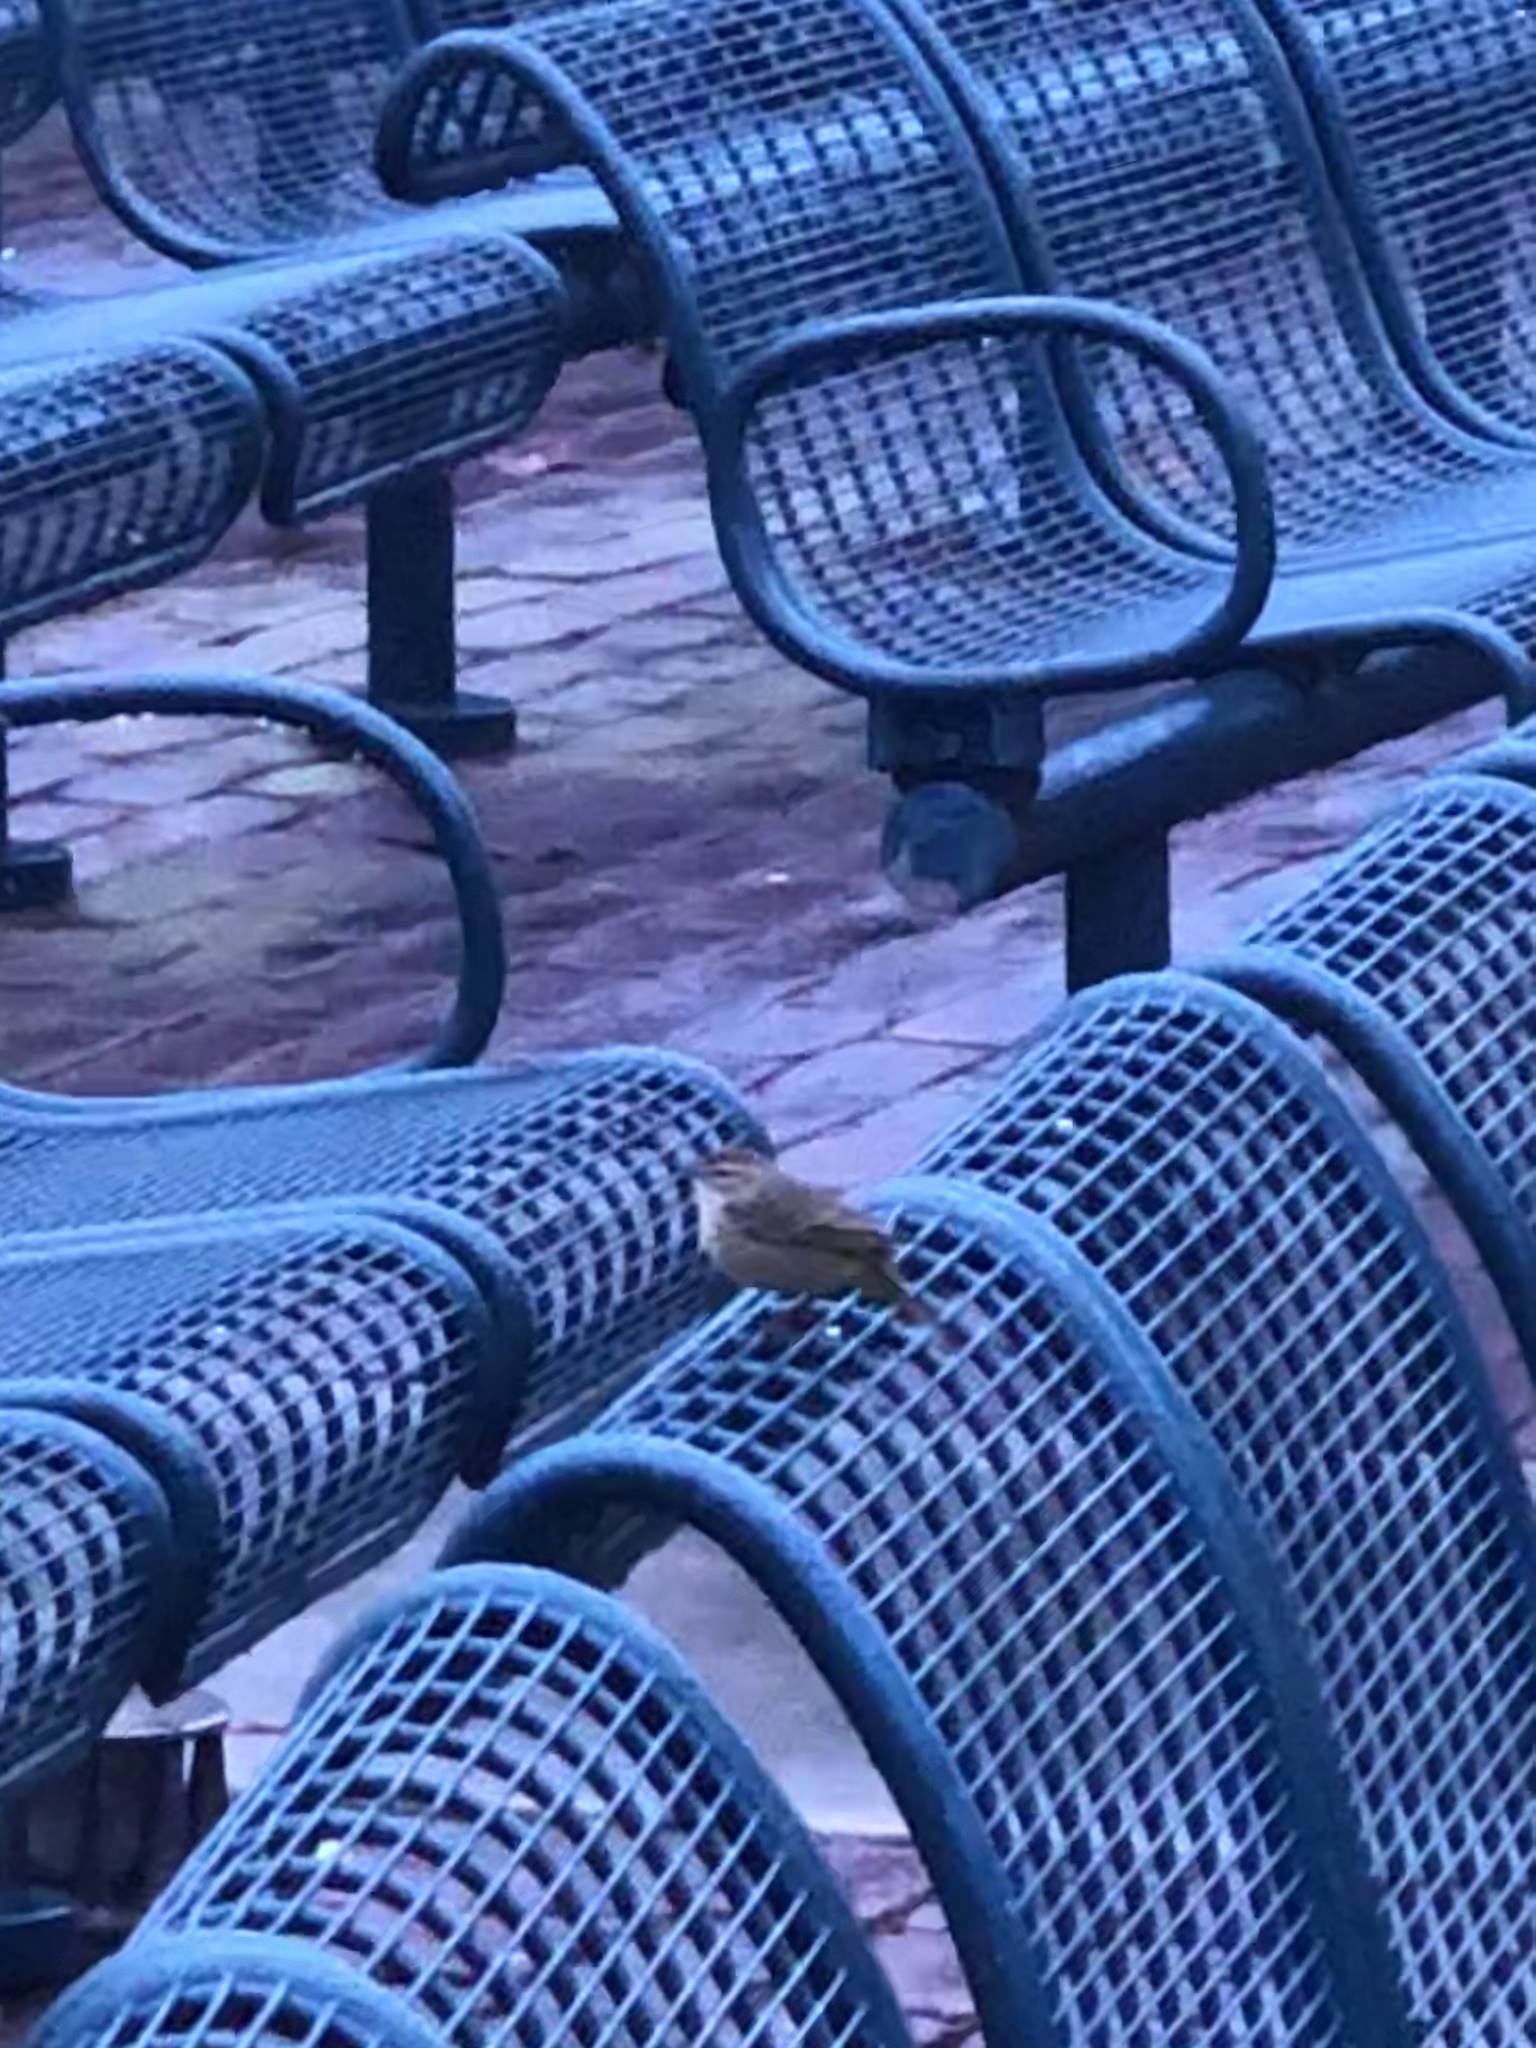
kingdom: Animalia
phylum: Chordata
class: Aves
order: Passeriformes
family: Parulidae
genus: Setophaga
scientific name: Setophaga palmarum
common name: Palm warbler
